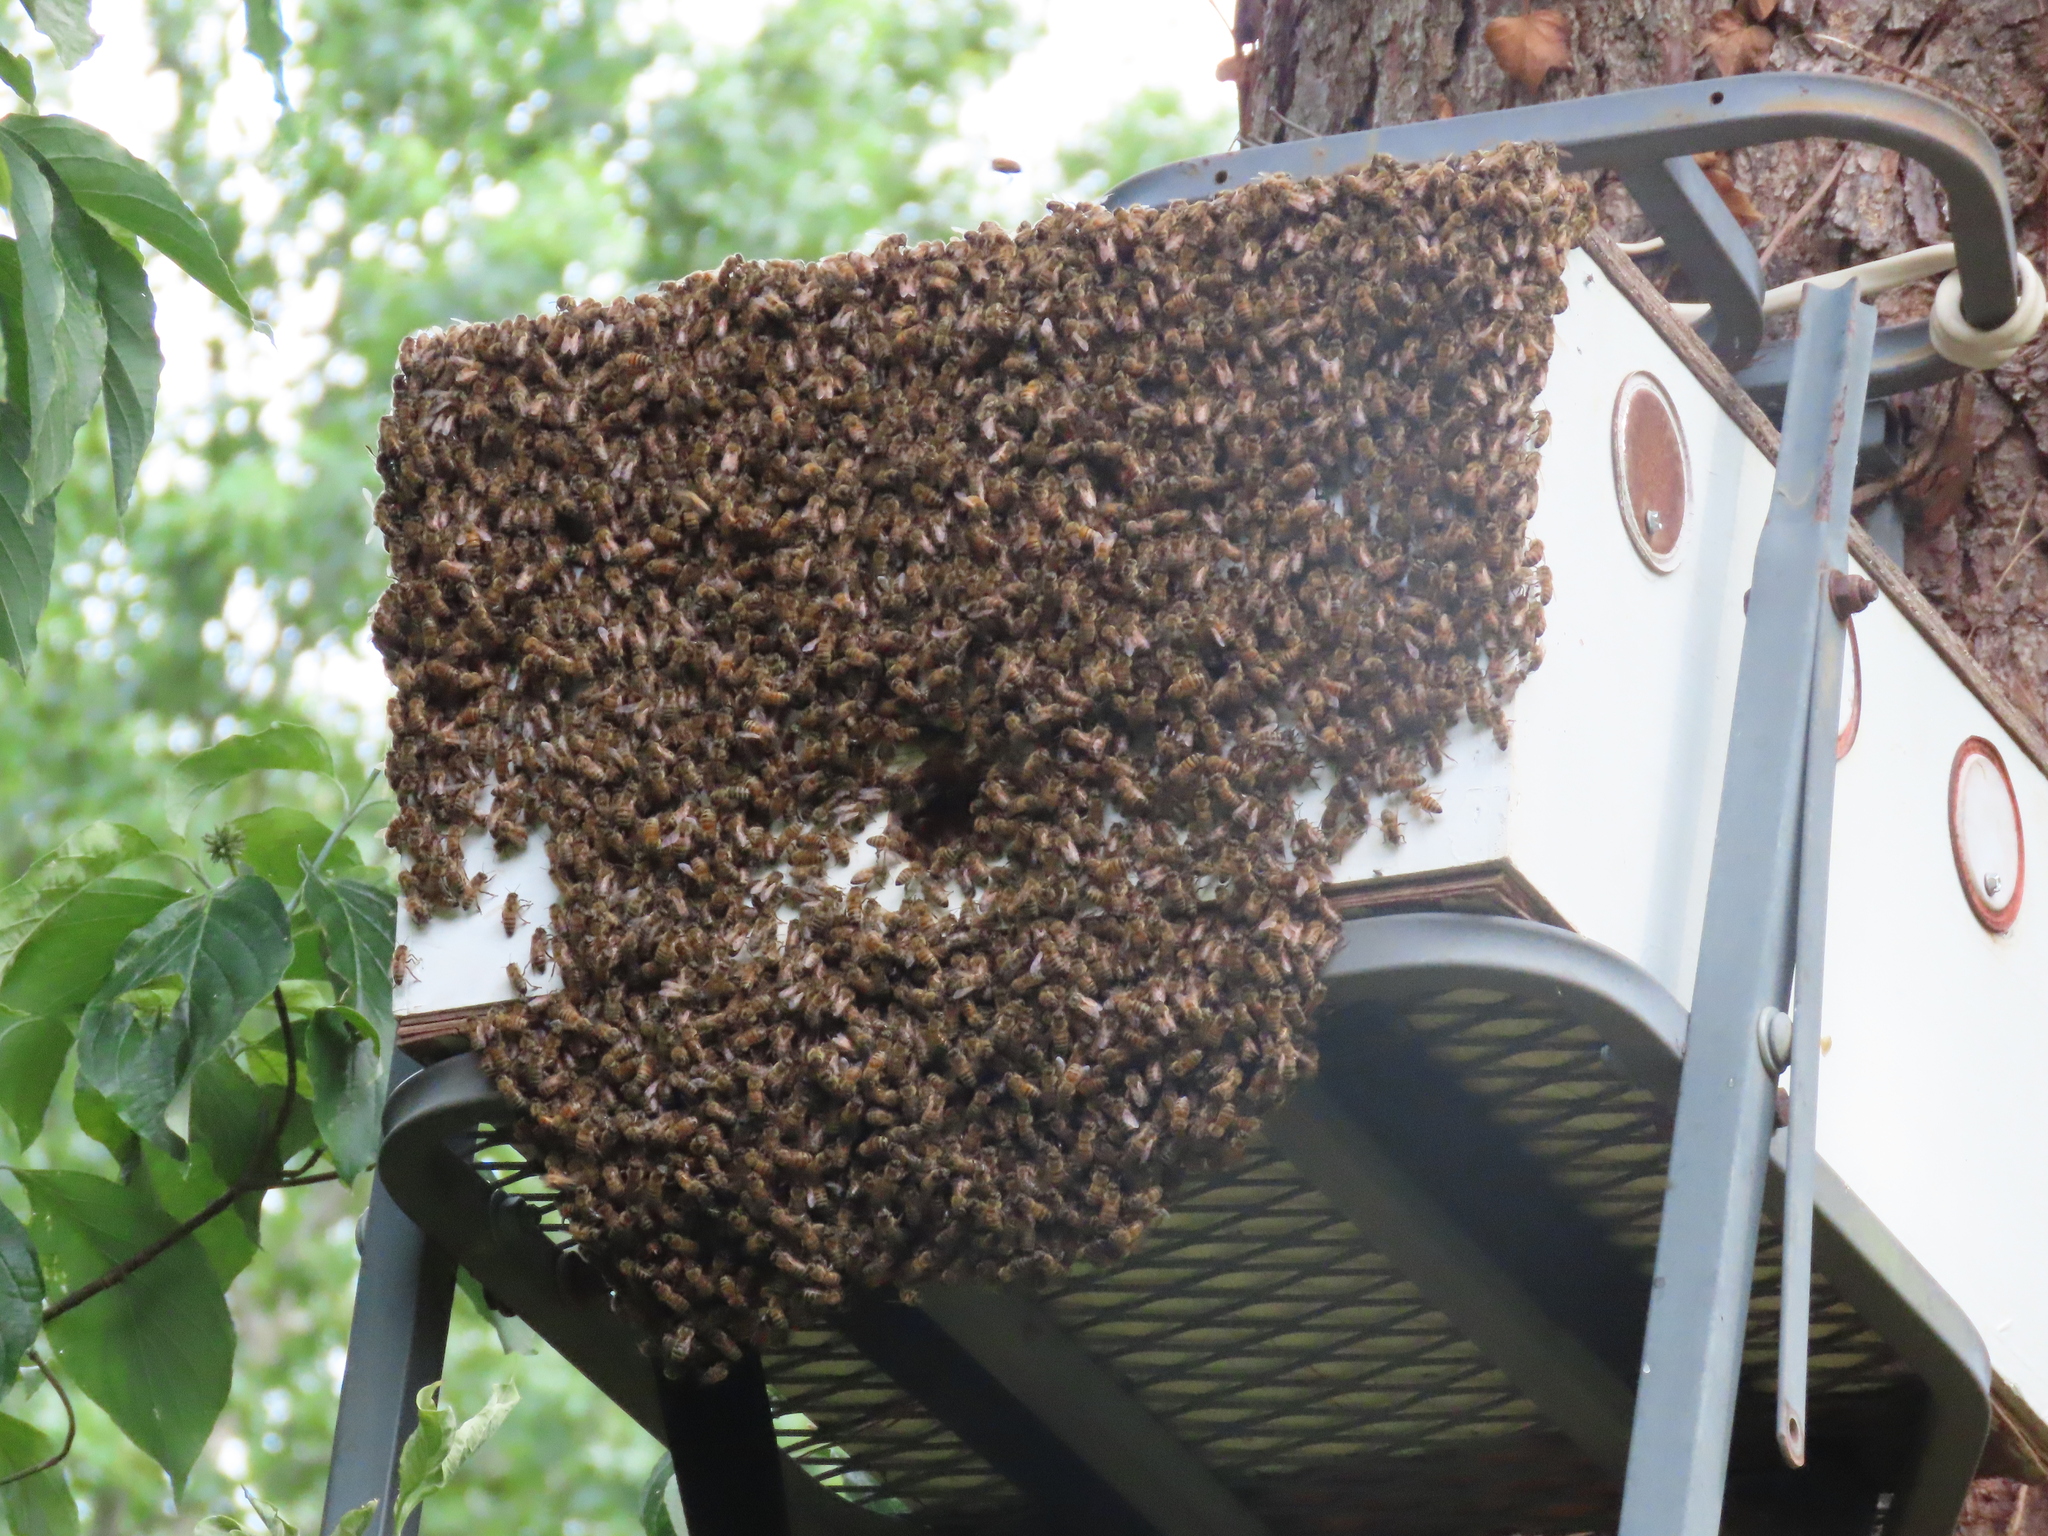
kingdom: Animalia
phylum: Arthropoda
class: Insecta
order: Hymenoptera
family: Apidae
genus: Apis
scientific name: Apis mellifera
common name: Honey bee
